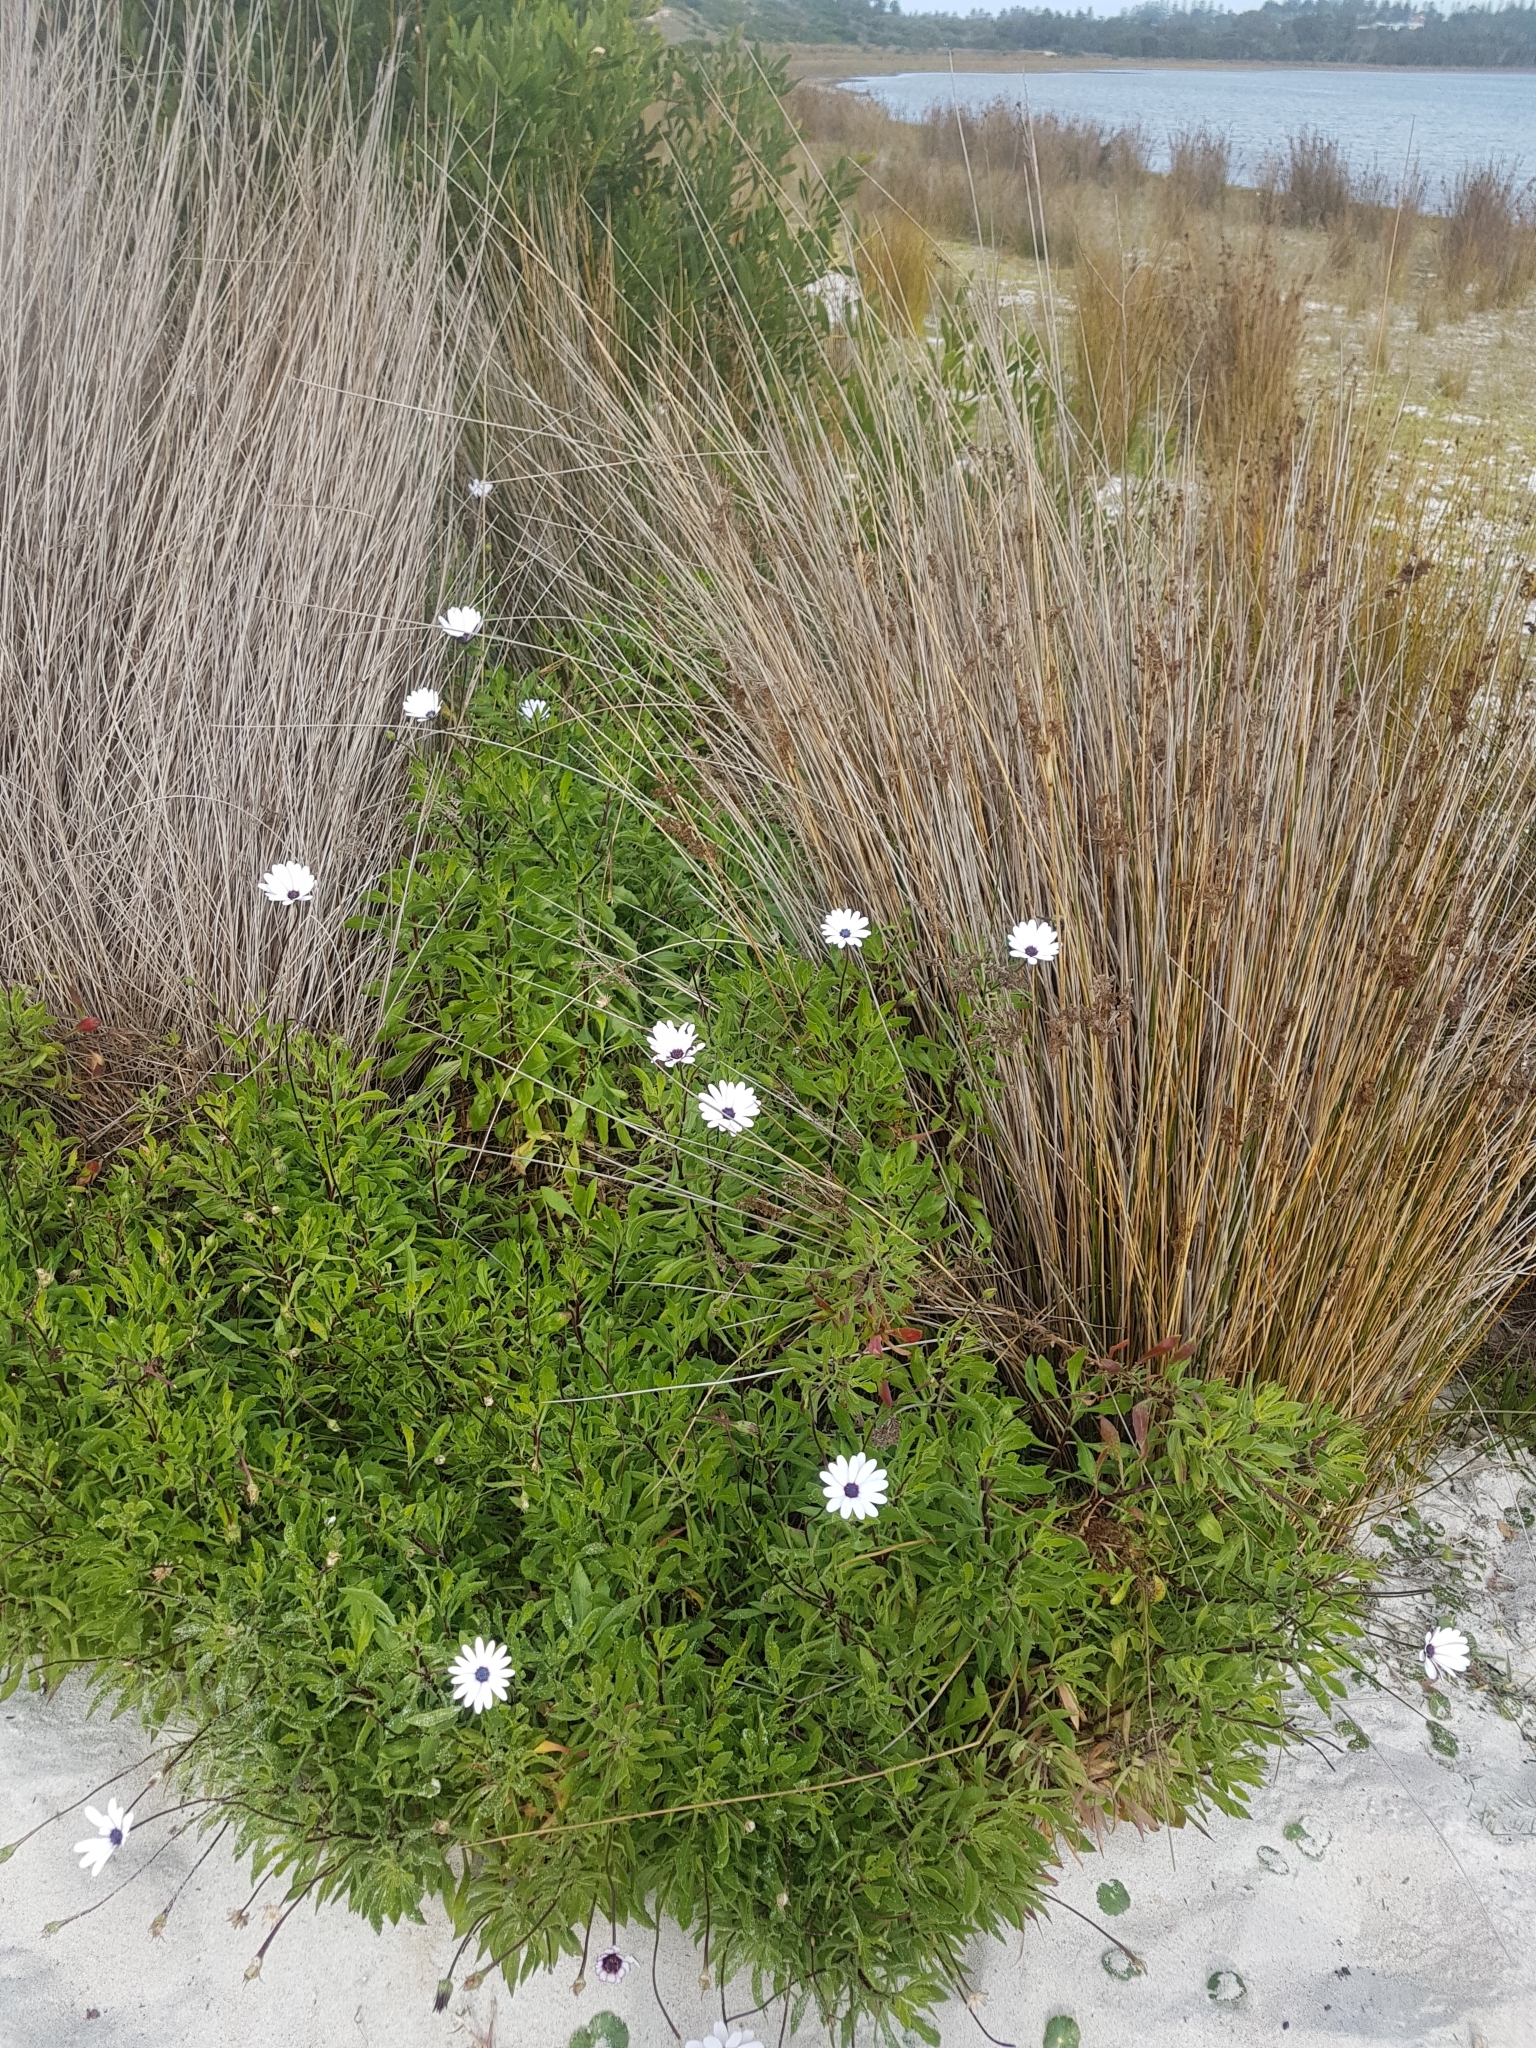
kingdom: Plantae
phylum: Tracheophyta
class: Magnoliopsida
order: Asterales
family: Asteraceae
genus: Dimorphotheca
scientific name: Dimorphotheca ecklonis
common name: Vanstaden's river daisy
